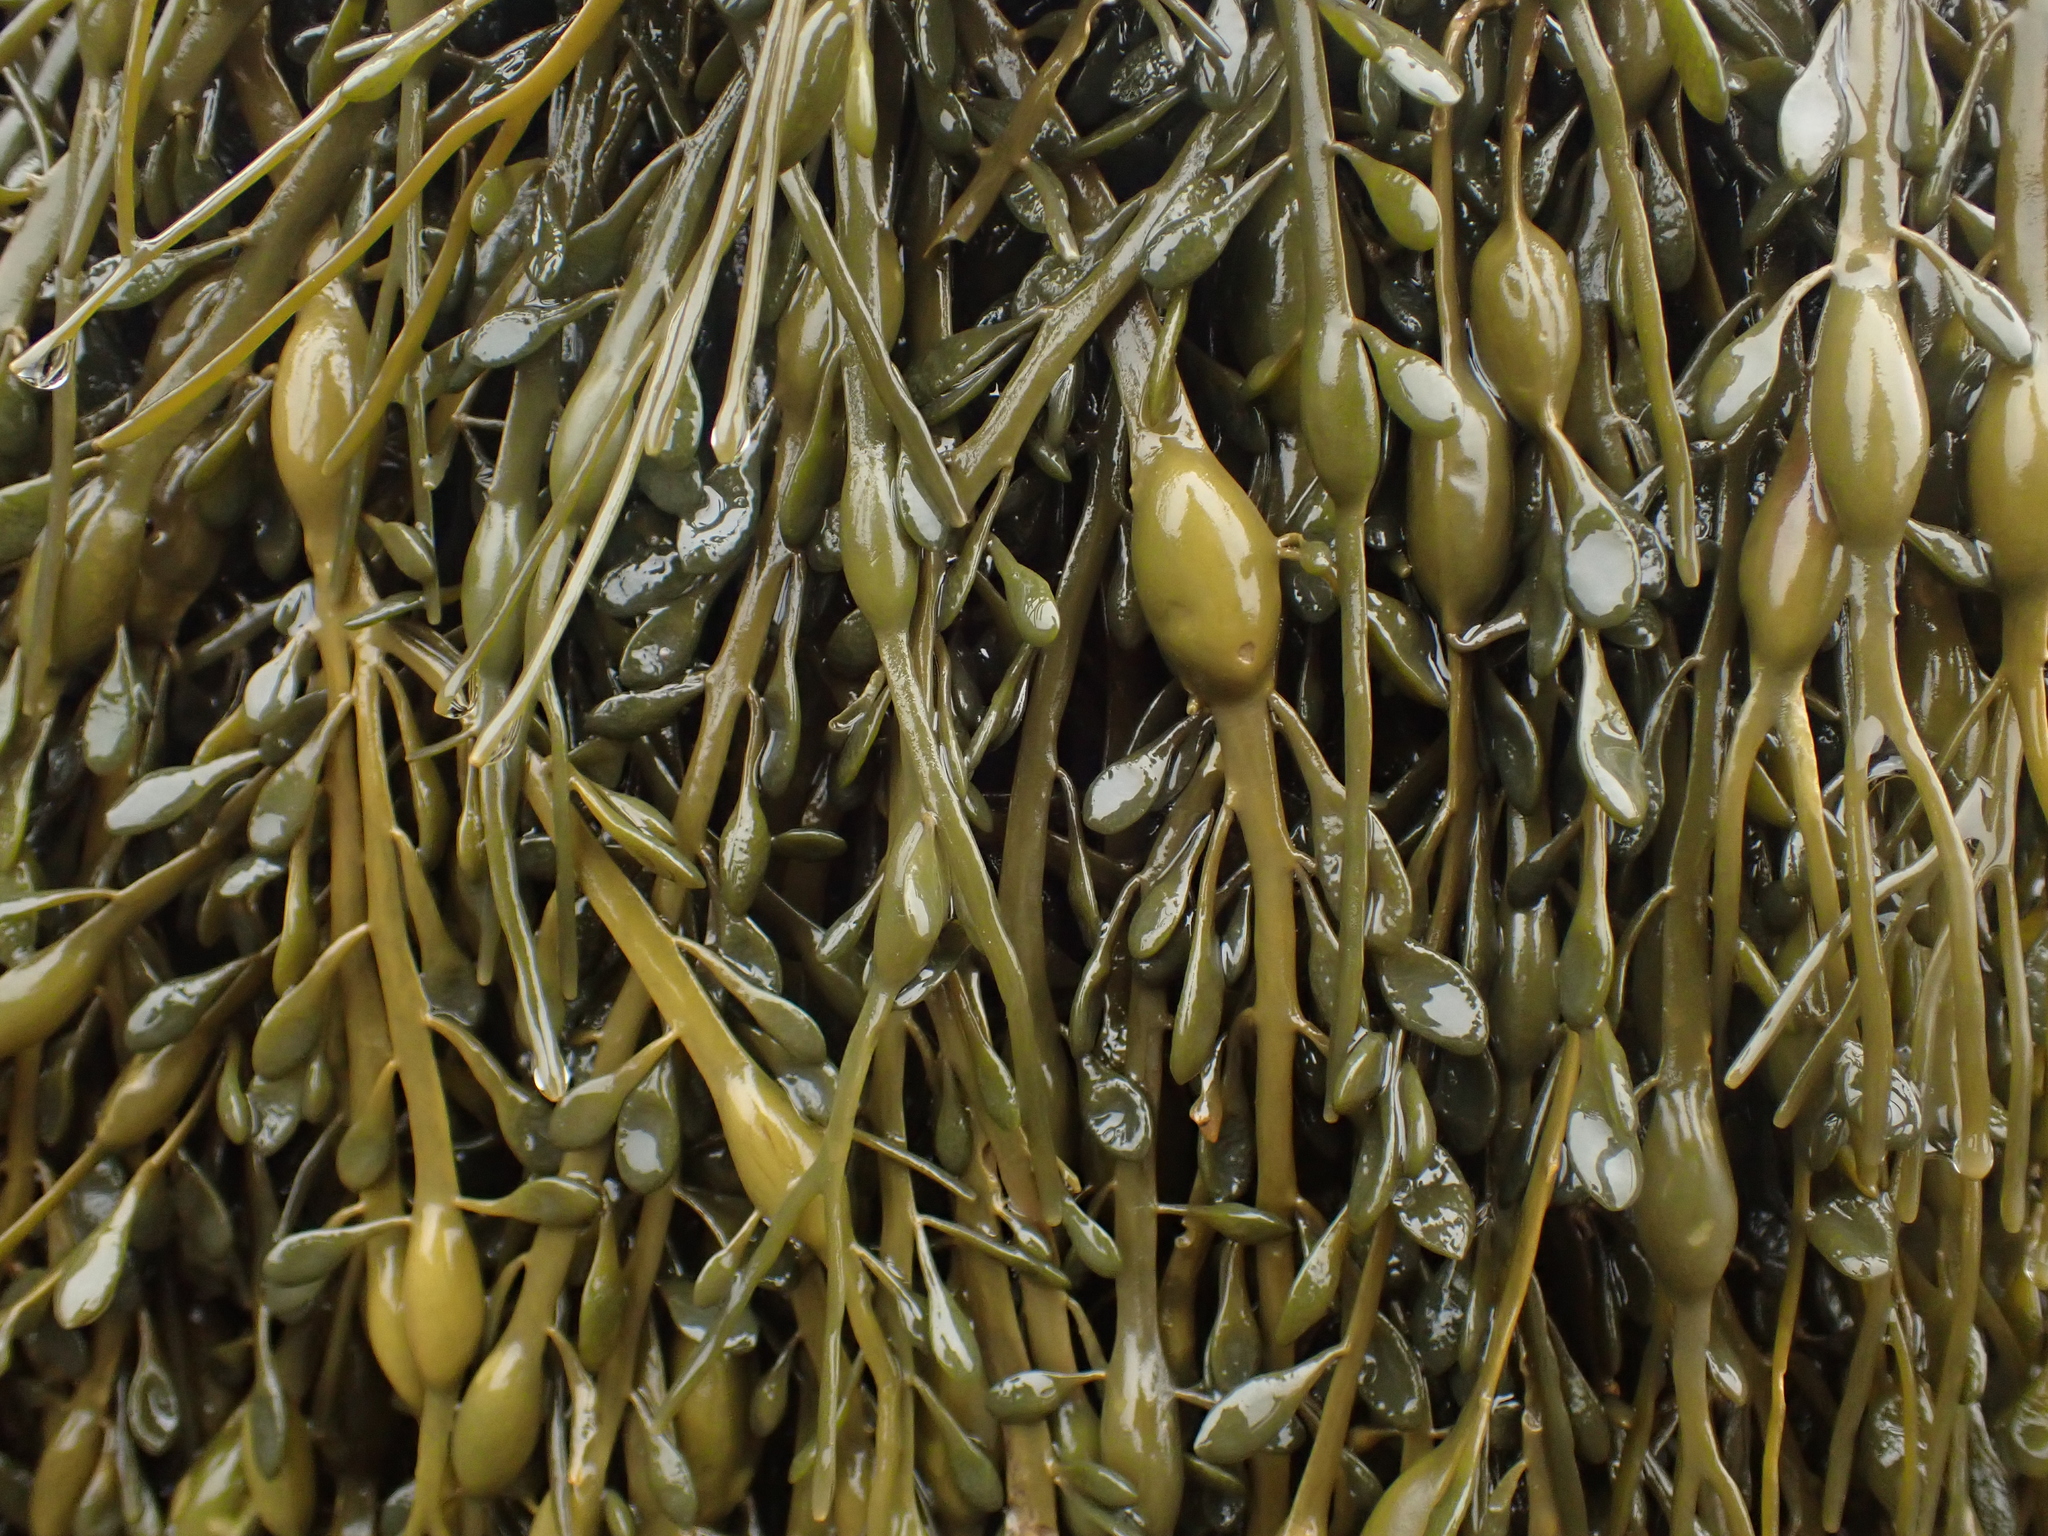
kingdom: Chromista
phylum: Ochrophyta
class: Phaeophyceae
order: Fucales
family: Fucaceae
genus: Ascophyllum
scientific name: Ascophyllum nodosum
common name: Knotted wrack
